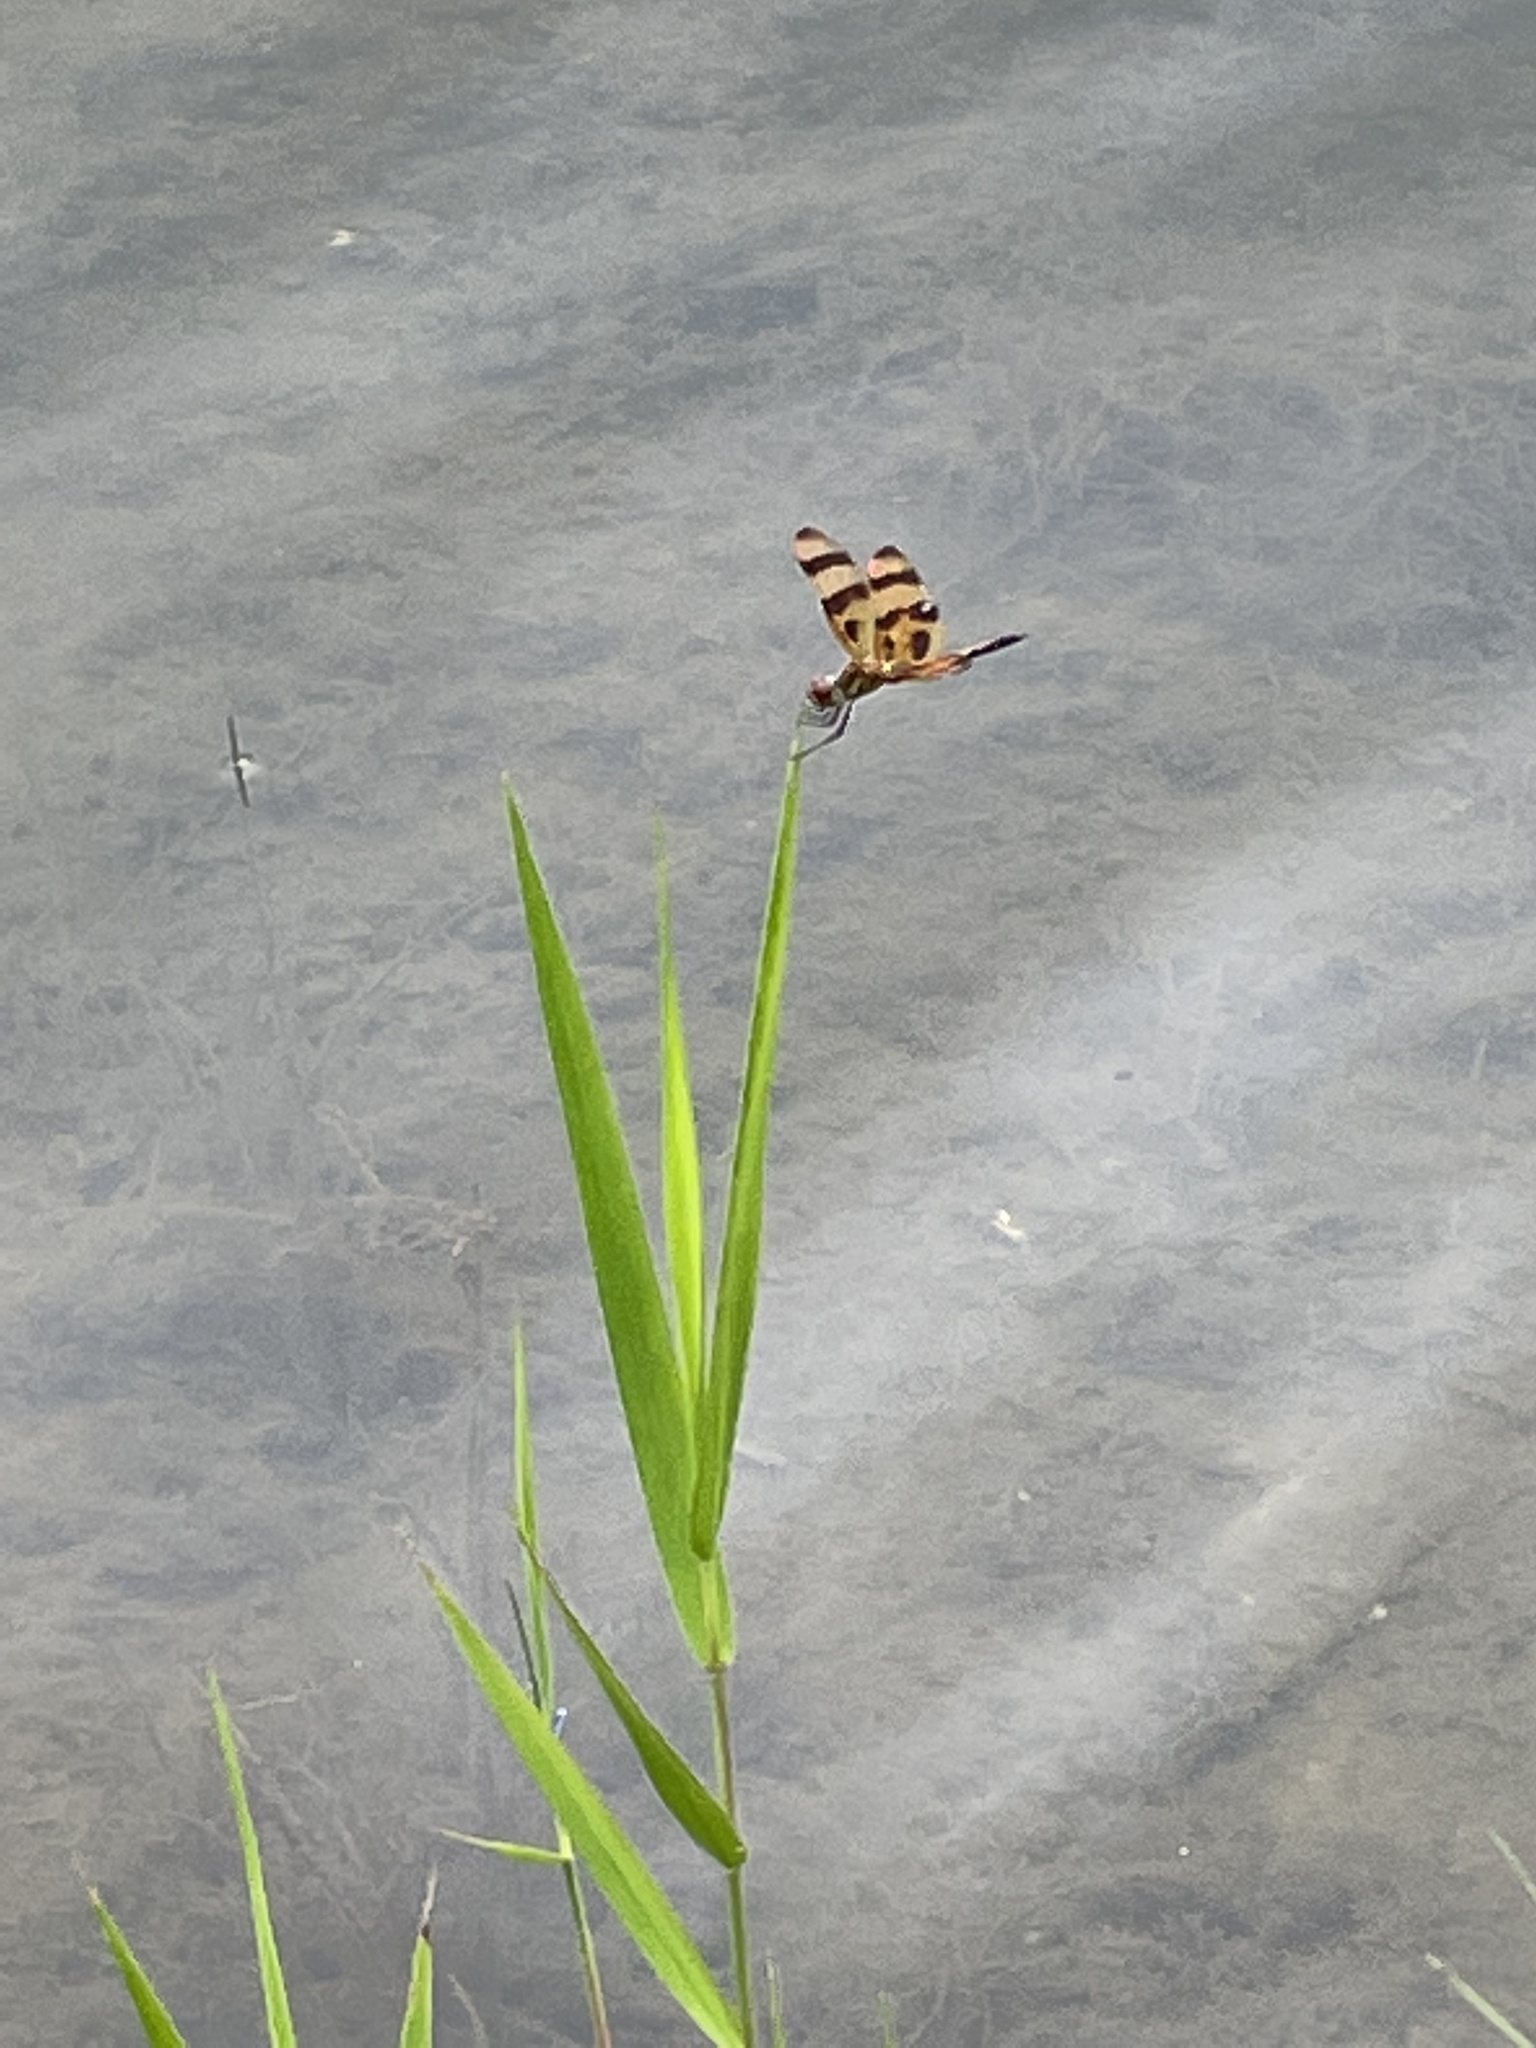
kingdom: Animalia
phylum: Arthropoda
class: Insecta
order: Odonata
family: Libellulidae
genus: Celithemis
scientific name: Celithemis eponina
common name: Halloween pennant
